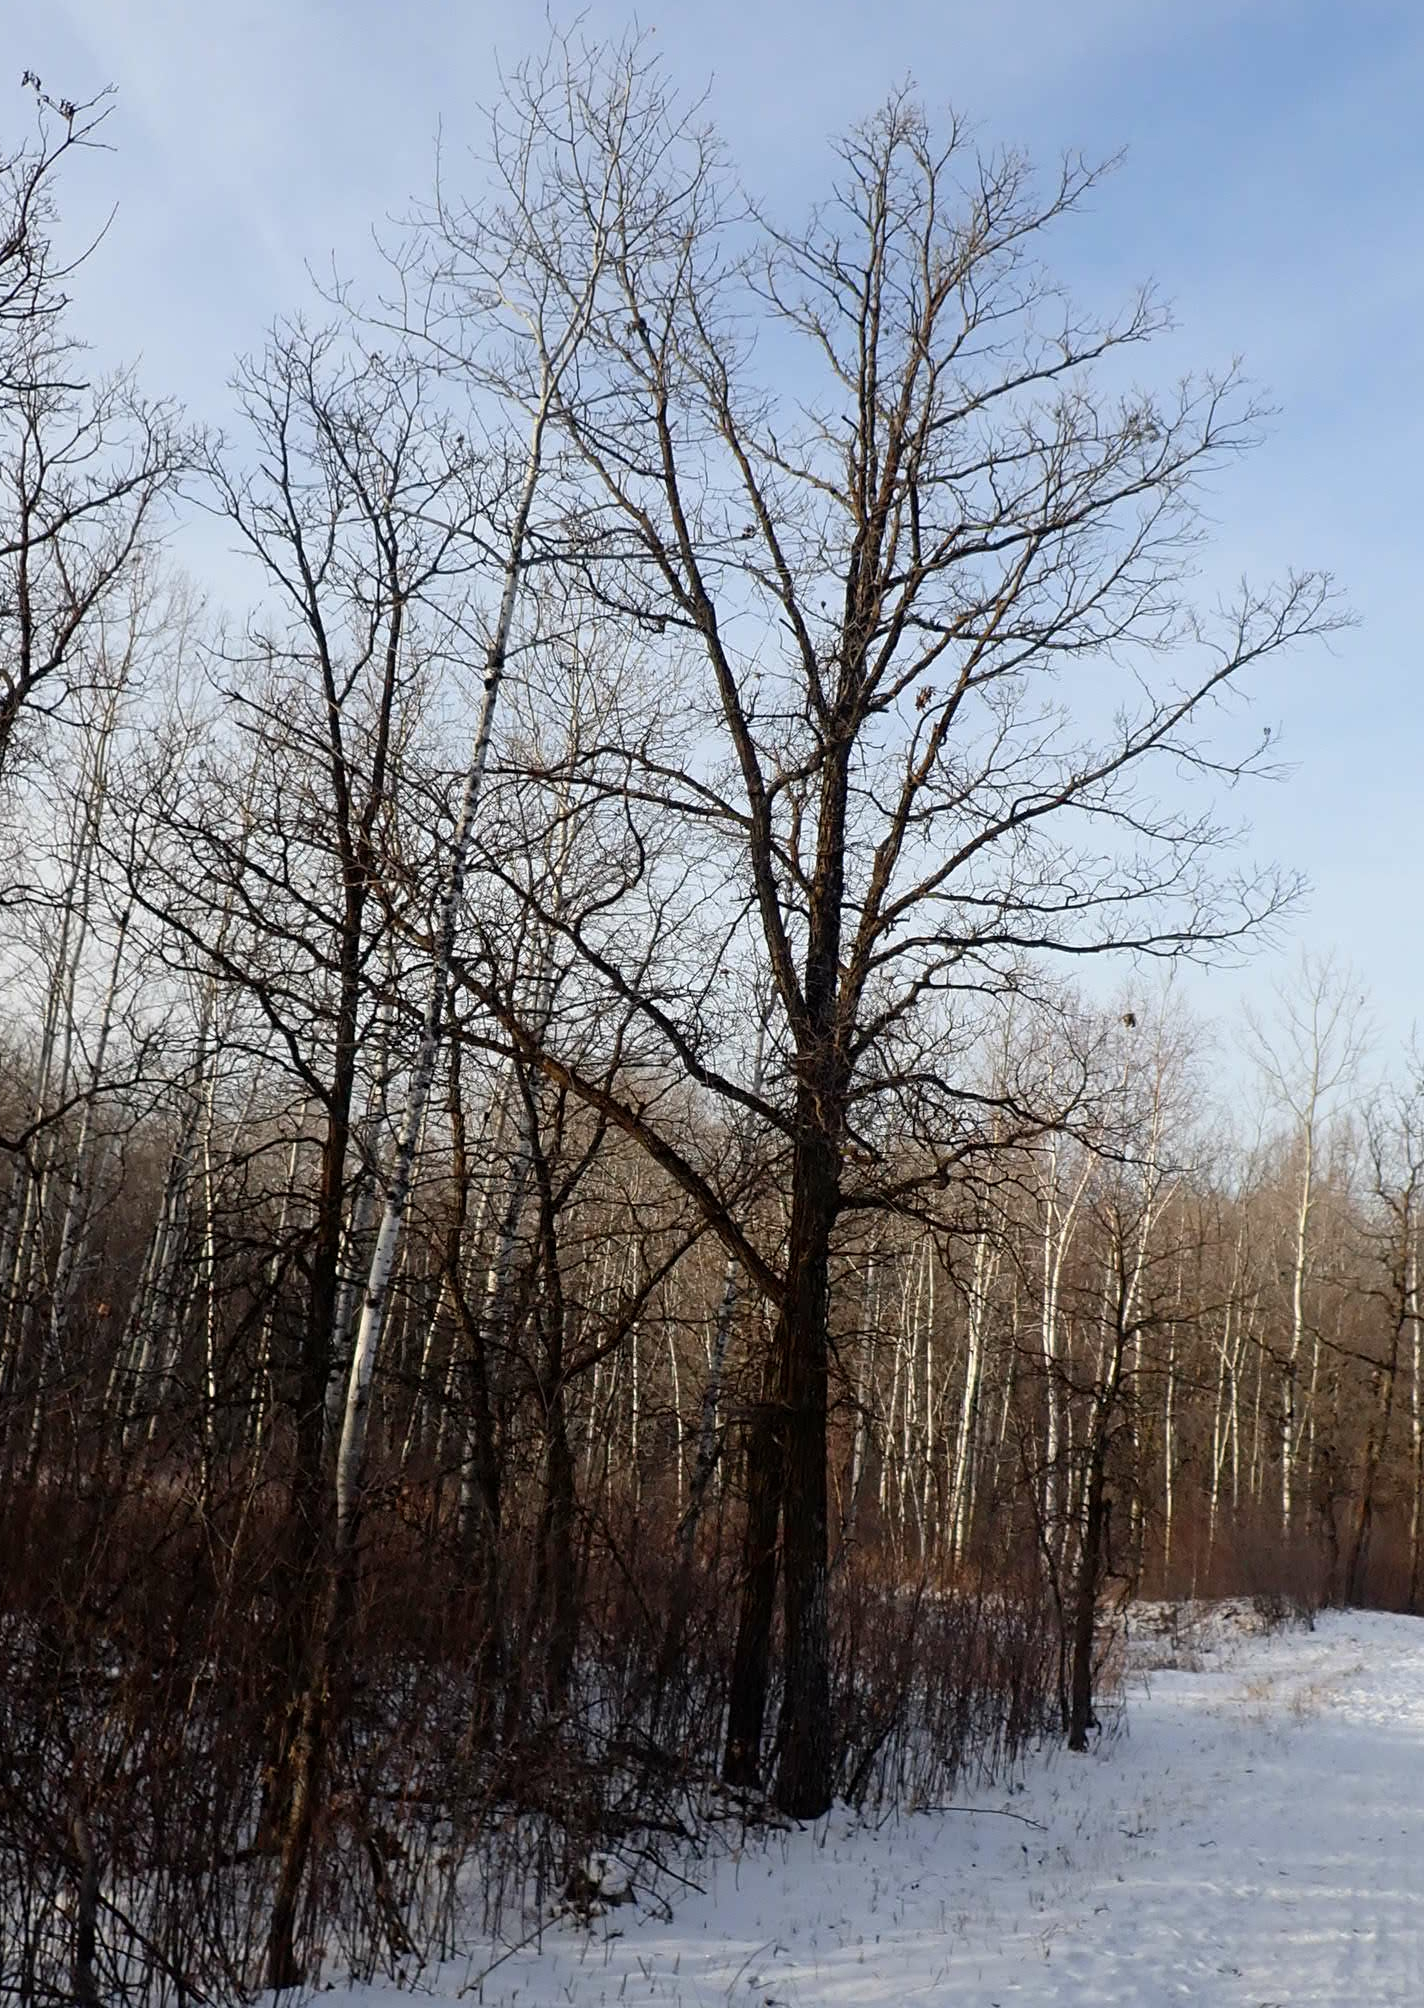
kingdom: Plantae
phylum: Tracheophyta
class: Magnoliopsida
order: Fagales
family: Fagaceae
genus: Quercus
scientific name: Quercus macrocarpa
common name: Bur oak
